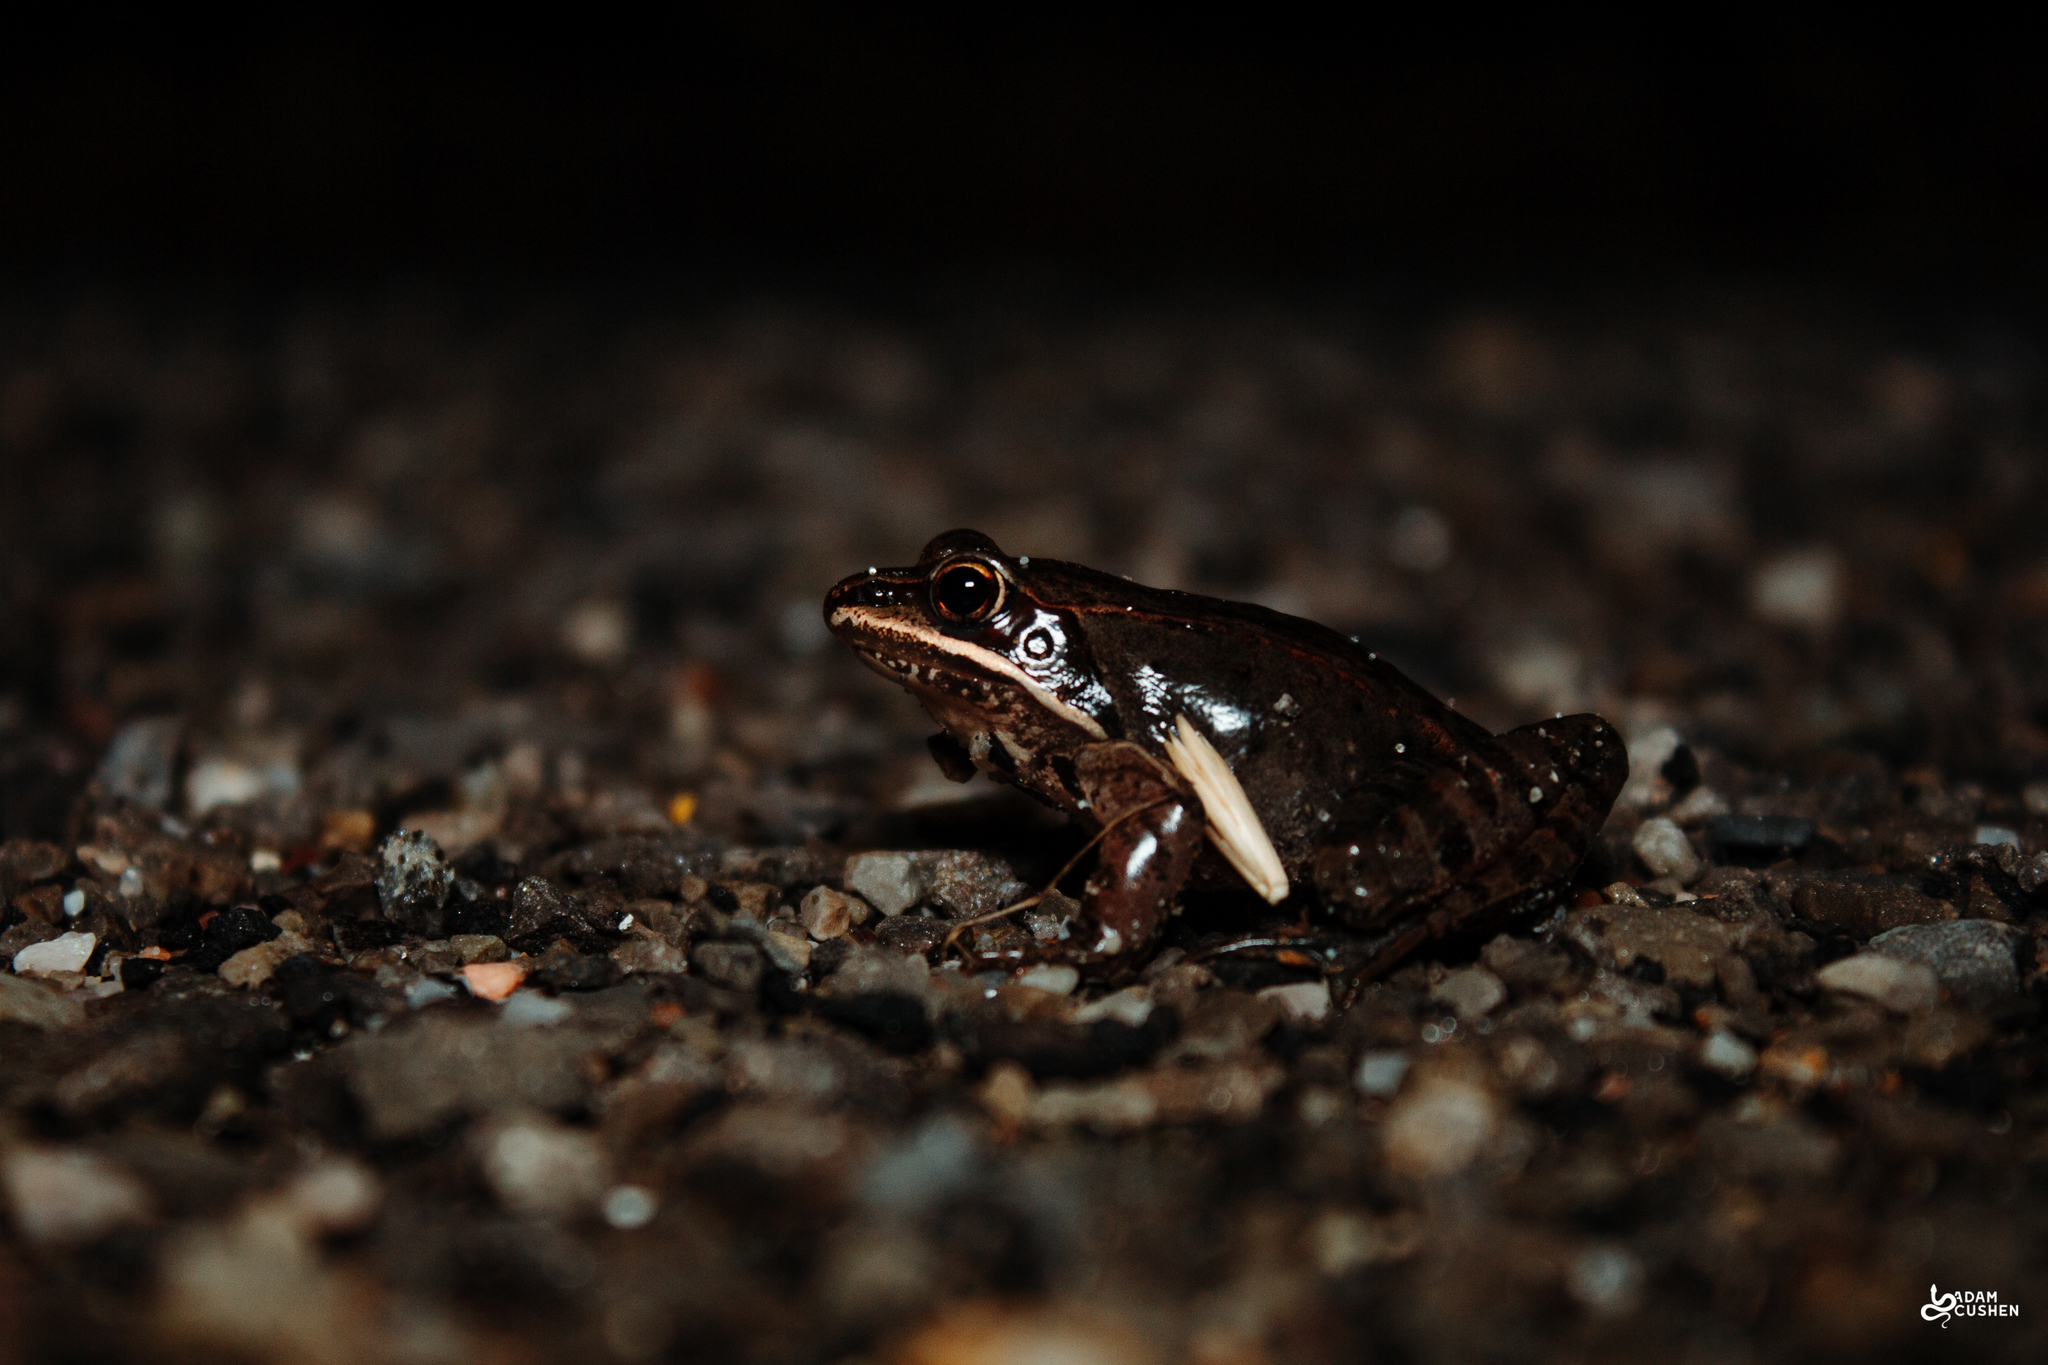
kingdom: Animalia
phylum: Chordata
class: Amphibia
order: Anura
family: Ranidae
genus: Lithobates
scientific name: Lithobates sylvaticus
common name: Wood frog
